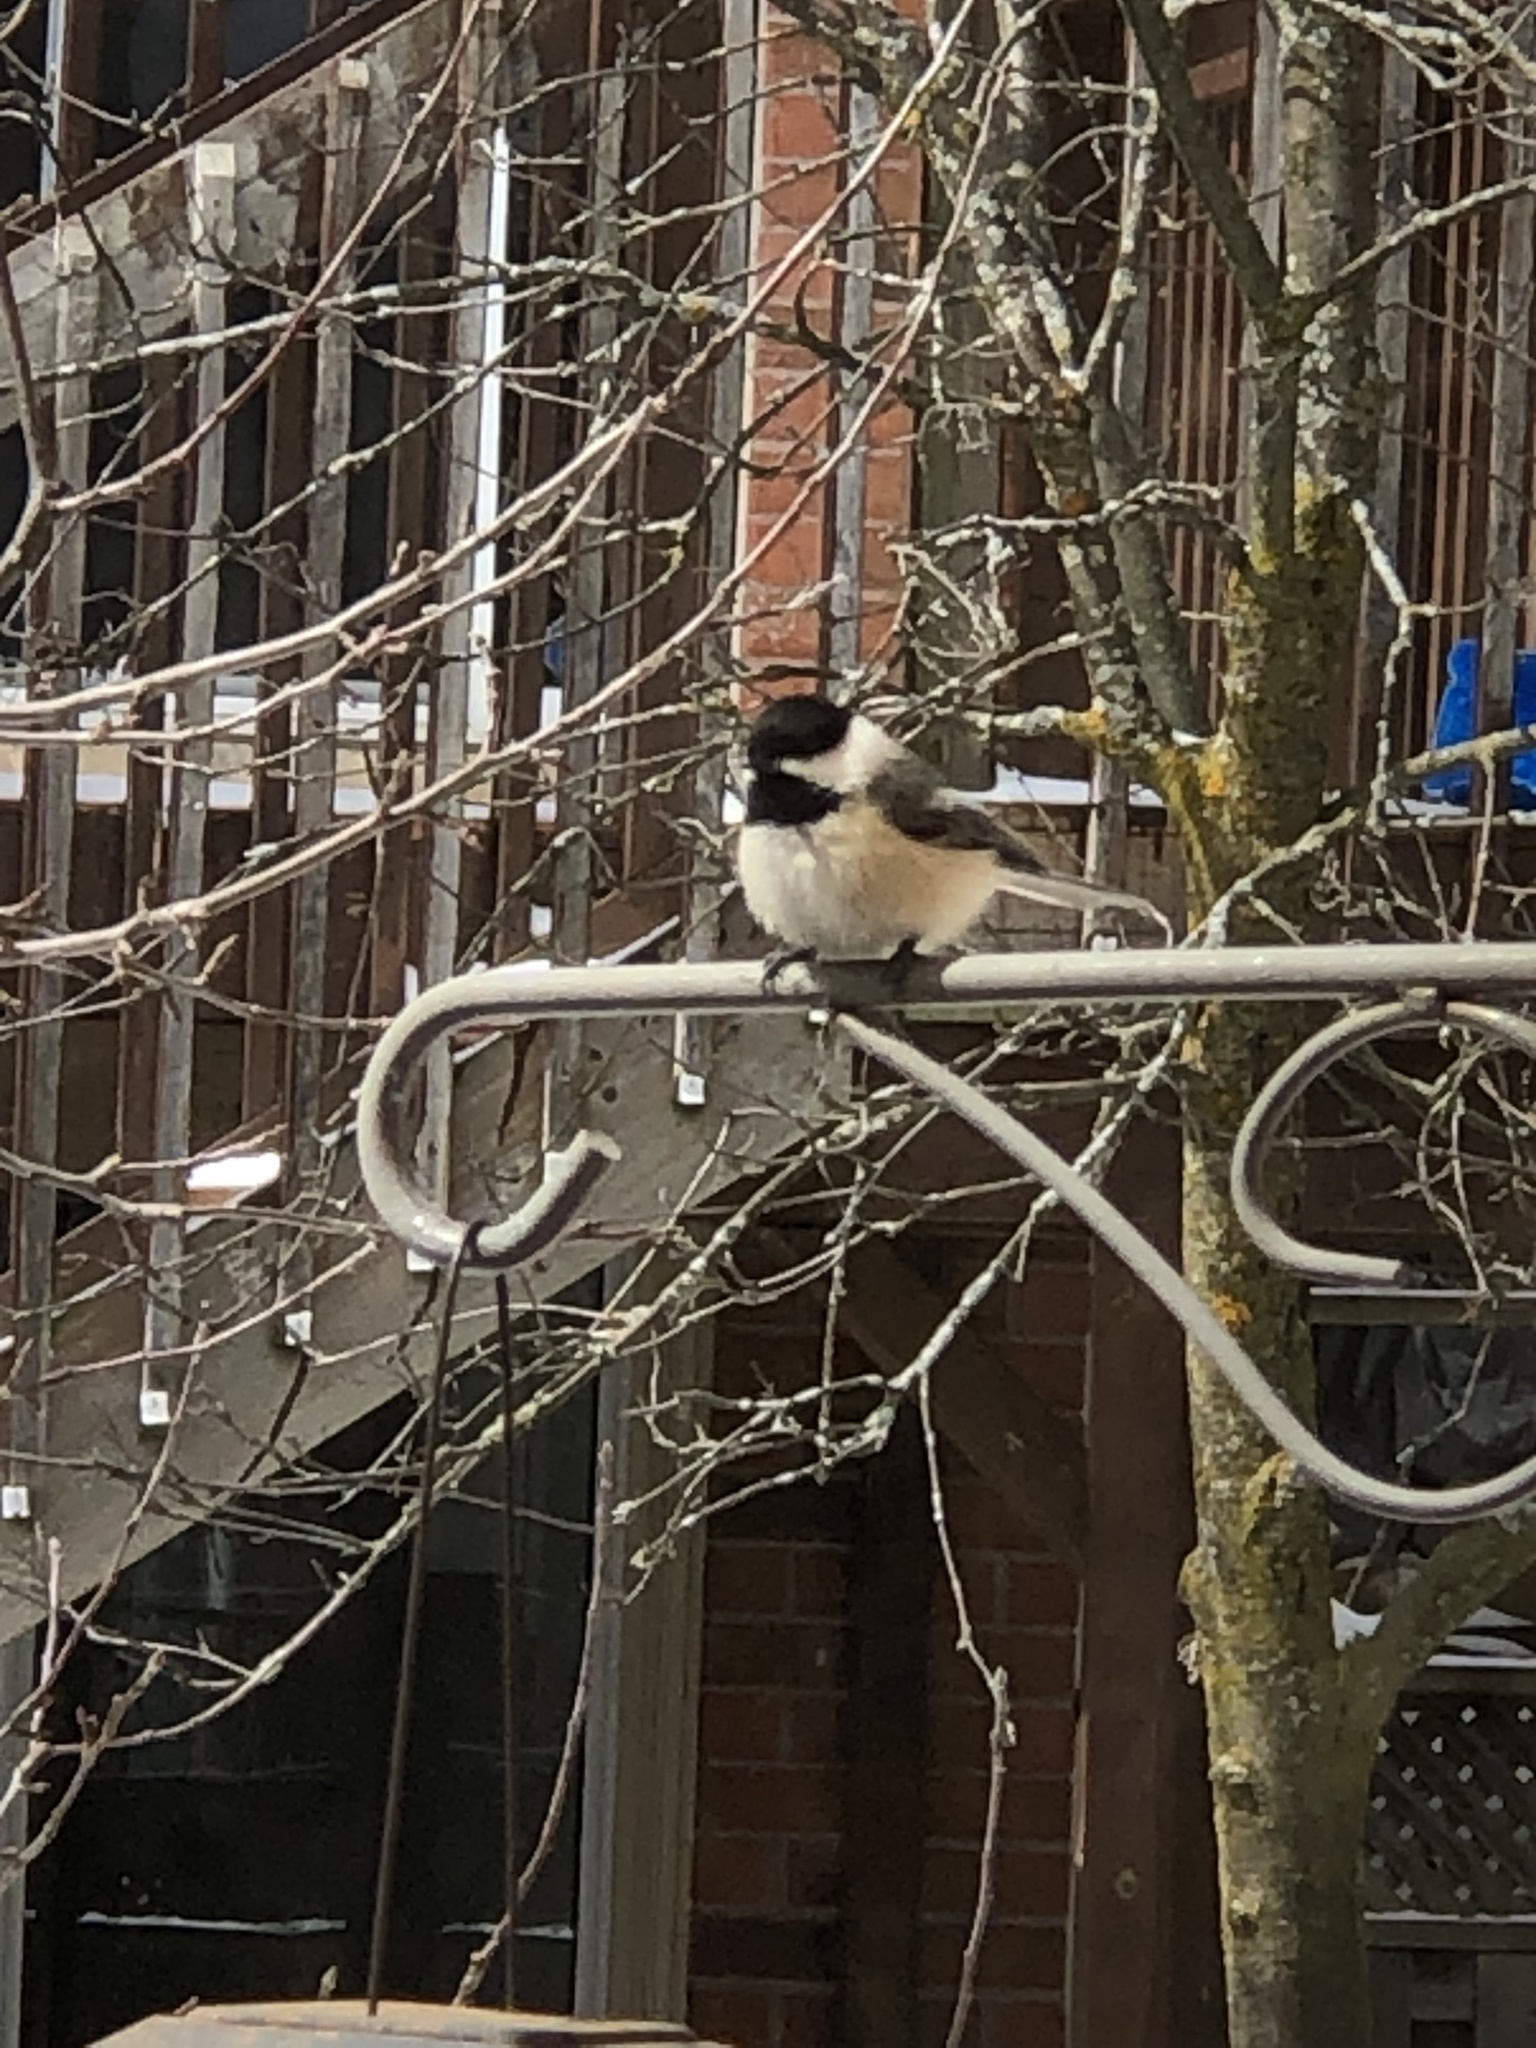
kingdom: Animalia
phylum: Chordata
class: Aves
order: Passeriformes
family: Paridae
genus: Poecile
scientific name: Poecile atricapillus
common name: Black-capped chickadee
